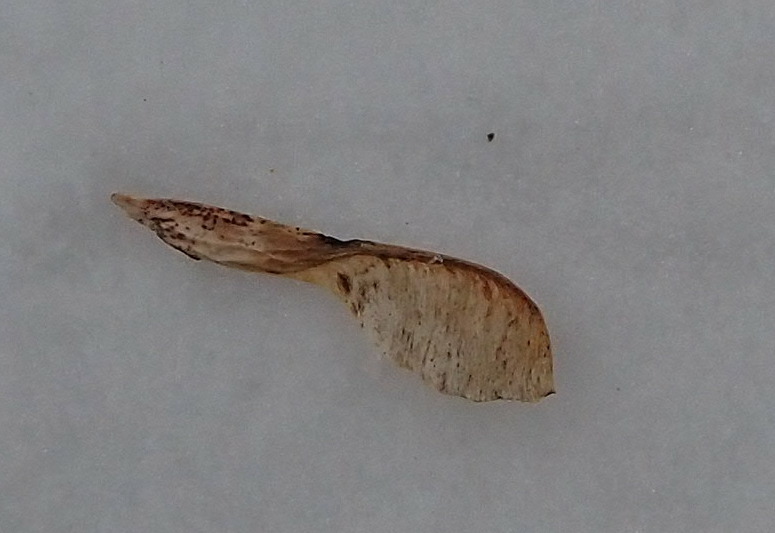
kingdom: Plantae
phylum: Tracheophyta
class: Magnoliopsida
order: Sapindales
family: Sapindaceae
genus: Acer
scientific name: Acer negundo
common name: Ashleaf maple
